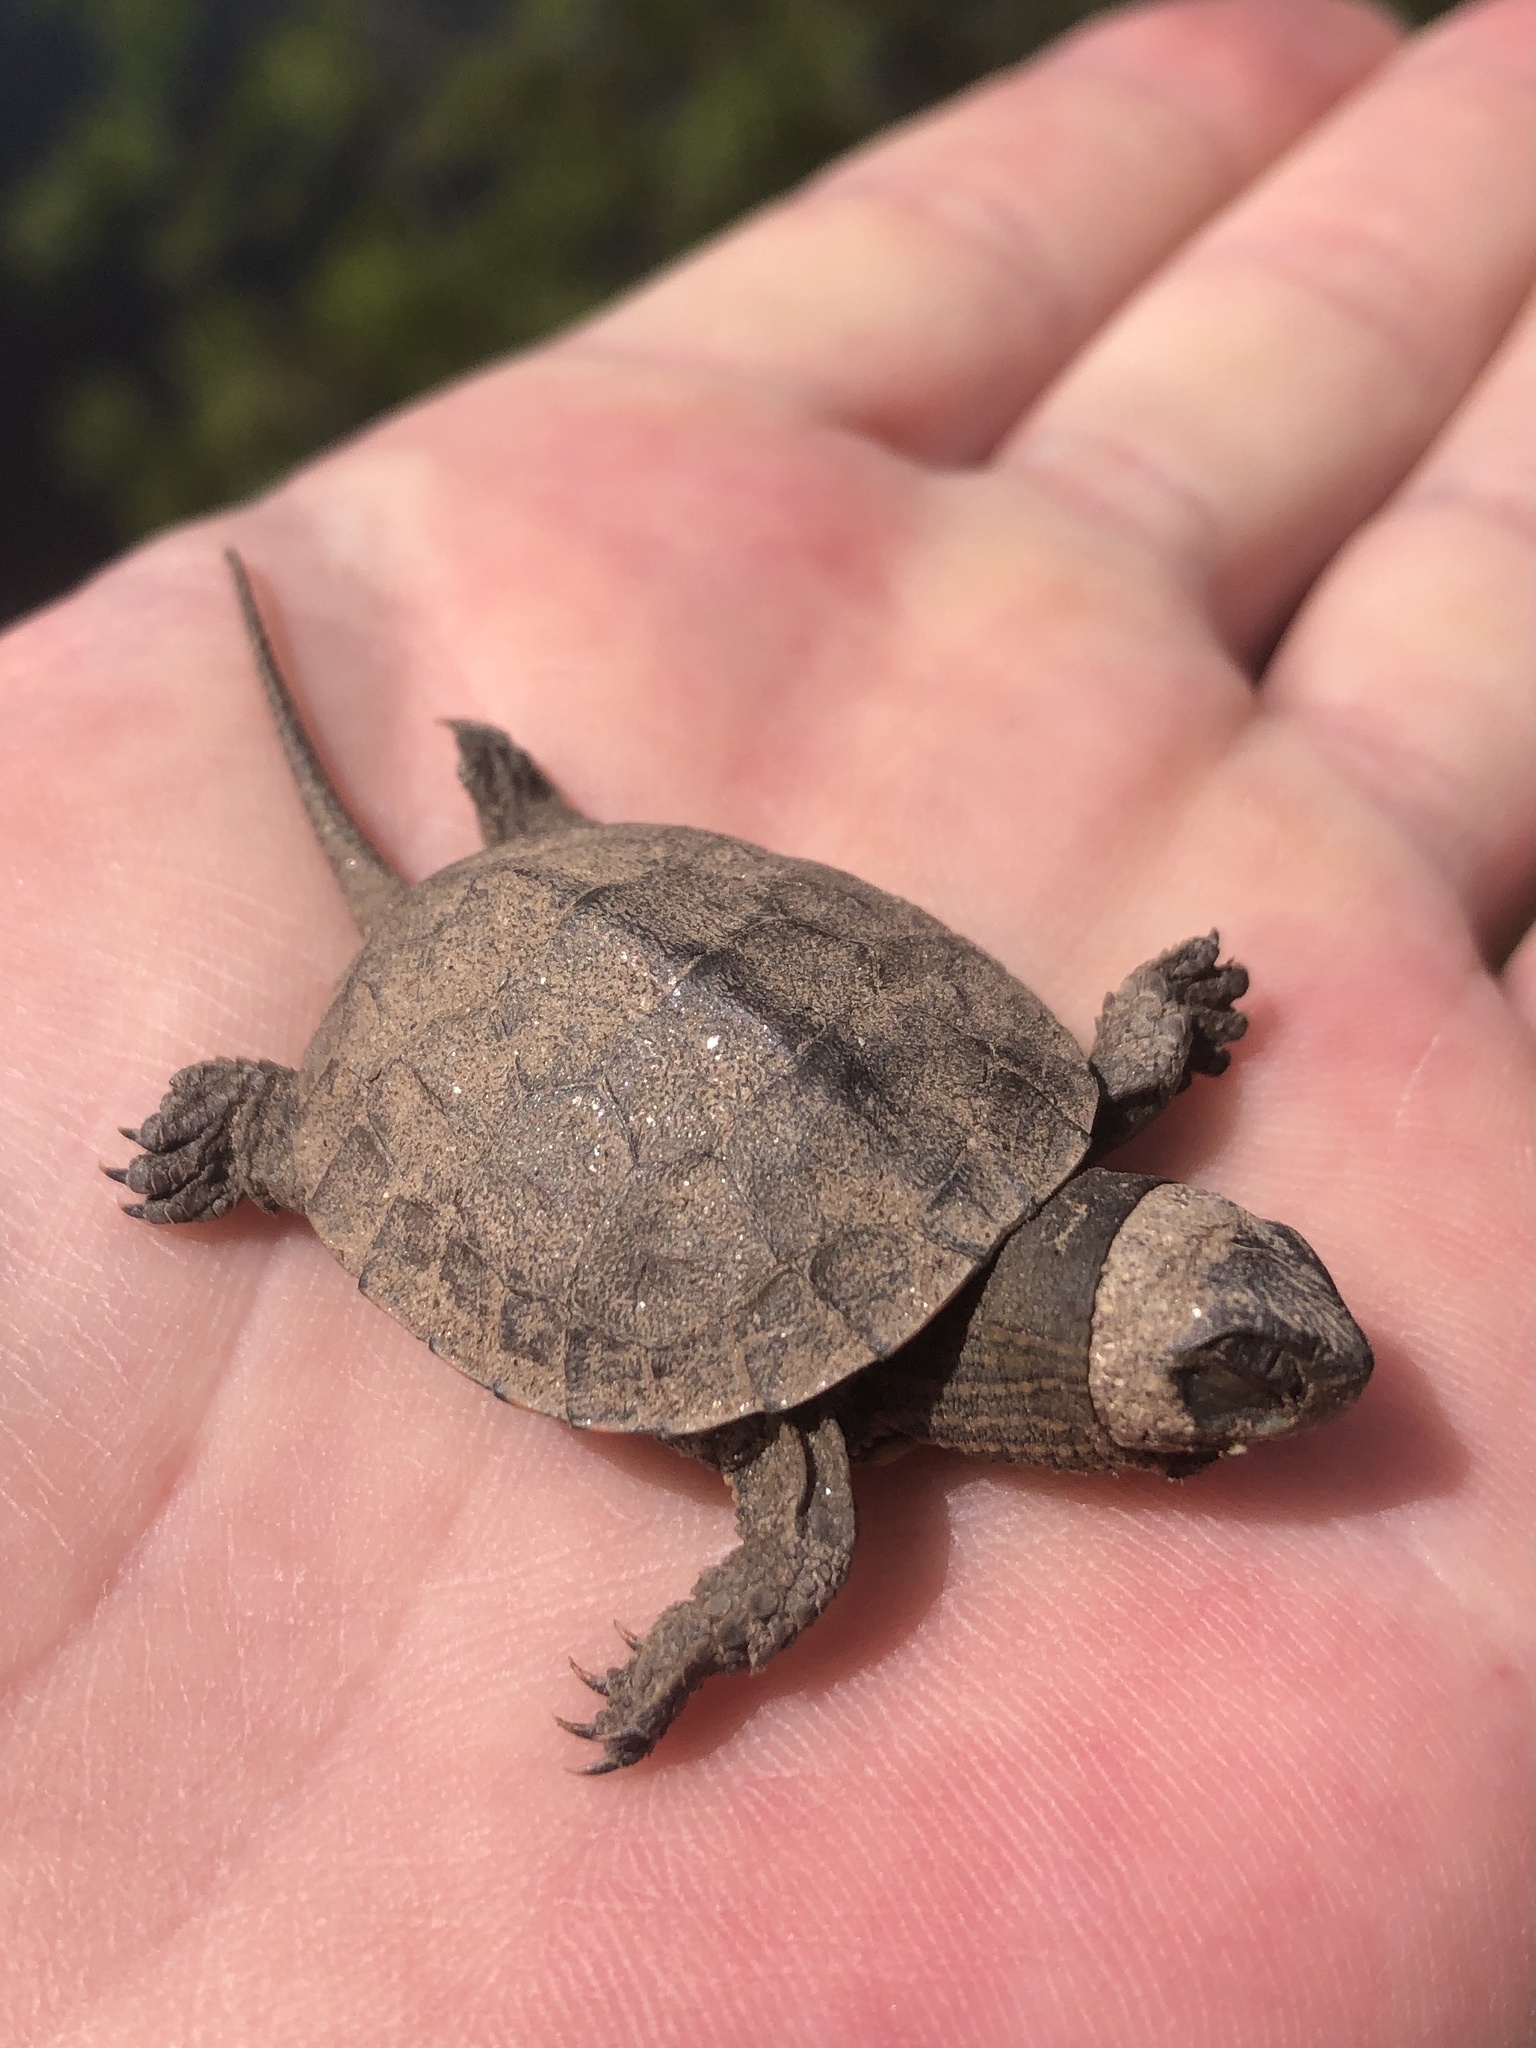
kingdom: Animalia
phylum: Chordata
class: Testudines
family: Geoemydidae
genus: Mauremys
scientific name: Mauremys leprosa
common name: Mediterranean pond turtle
